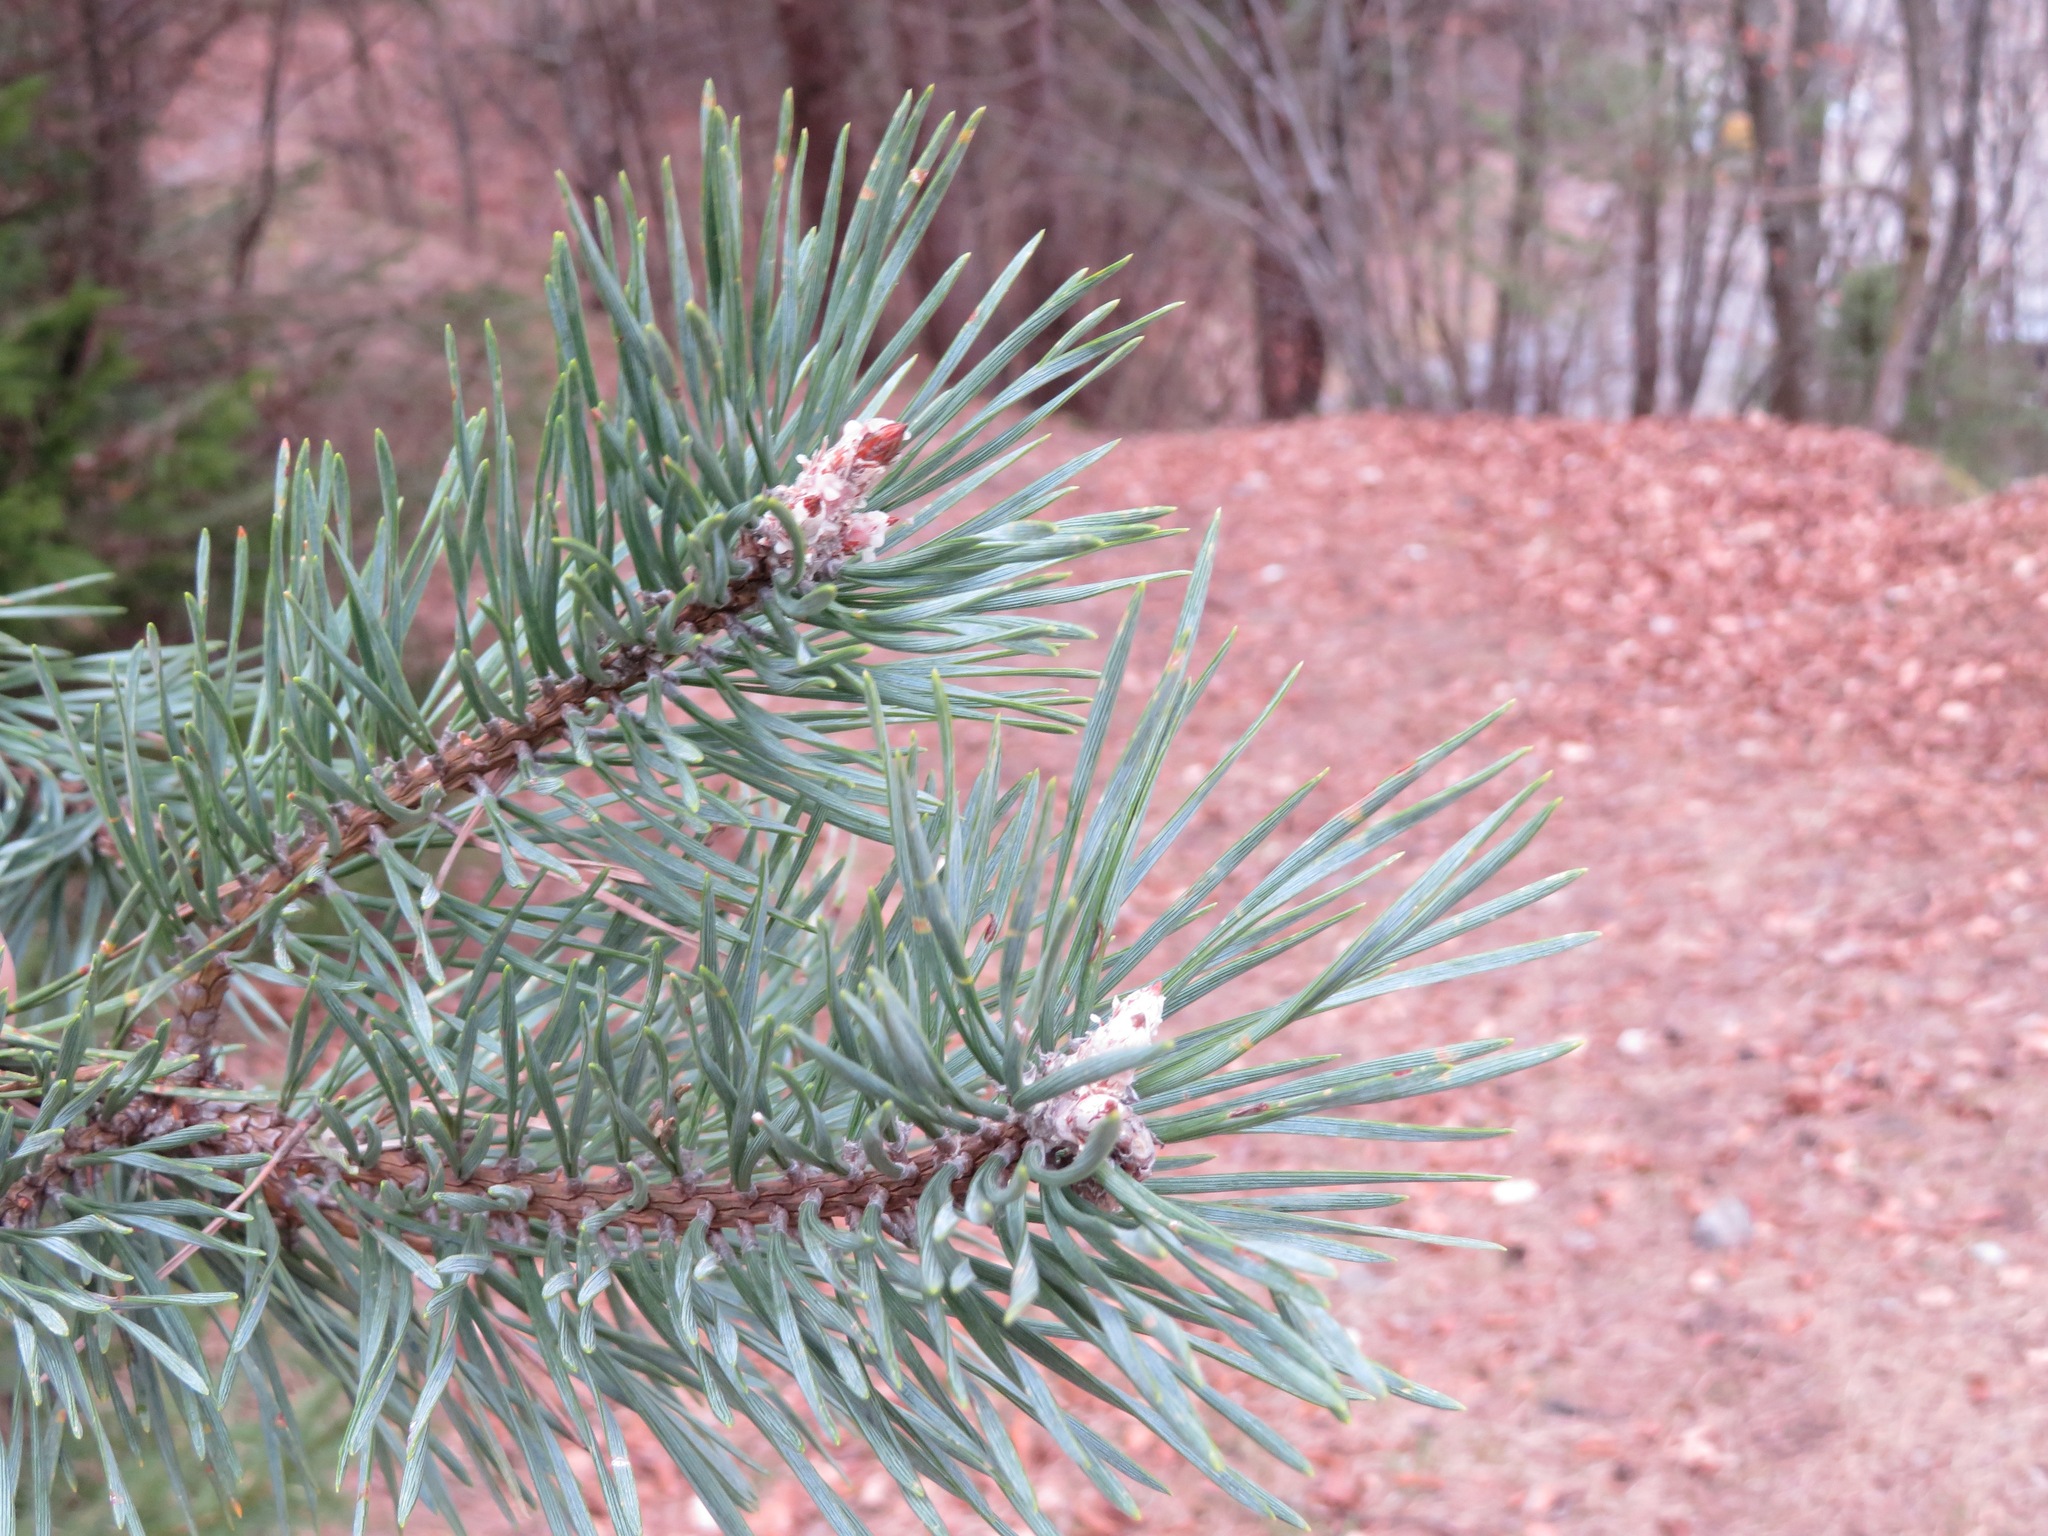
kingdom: Plantae
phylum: Tracheophyta
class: Pinopsida
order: Pinales
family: Pinaceae
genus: Pinus
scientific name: Pinus sylvestris
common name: Scots pine
